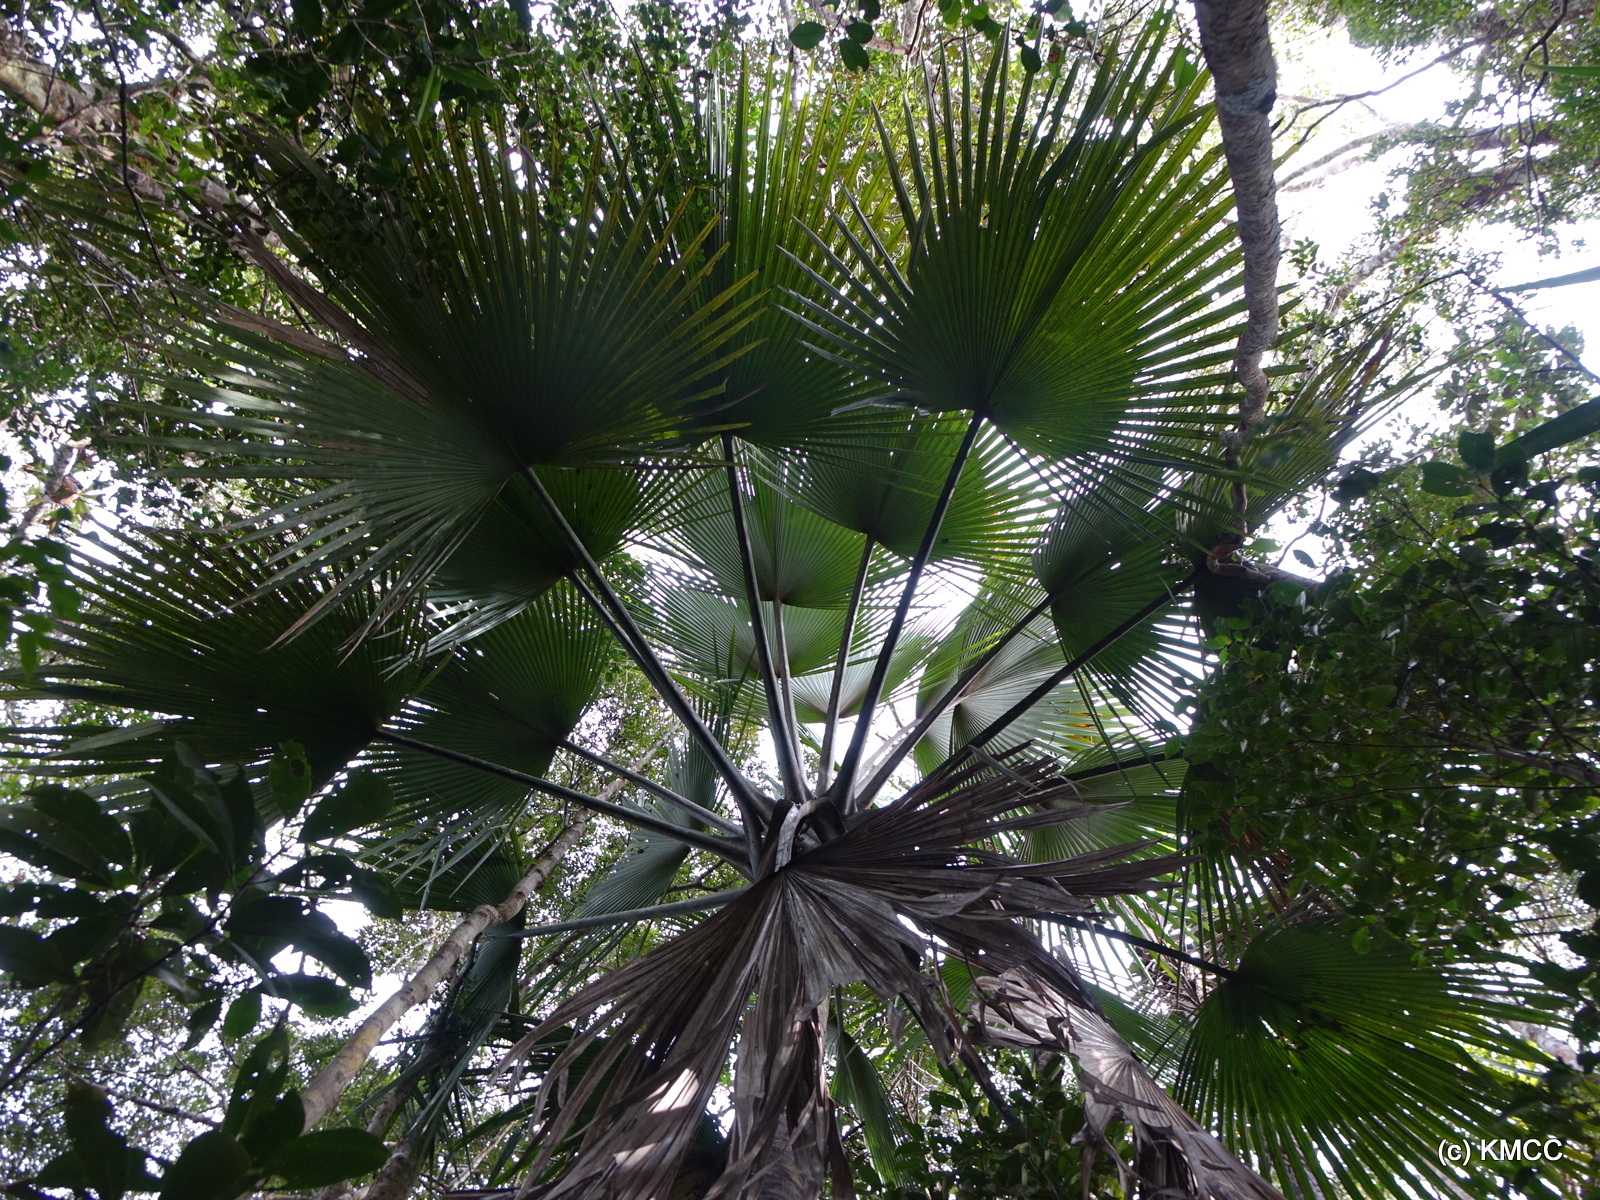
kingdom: Plantae
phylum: Tracheophyta
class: Liliopsida
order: Arecales
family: Arecaceae
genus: Satranala
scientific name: Satranala decussilvae
